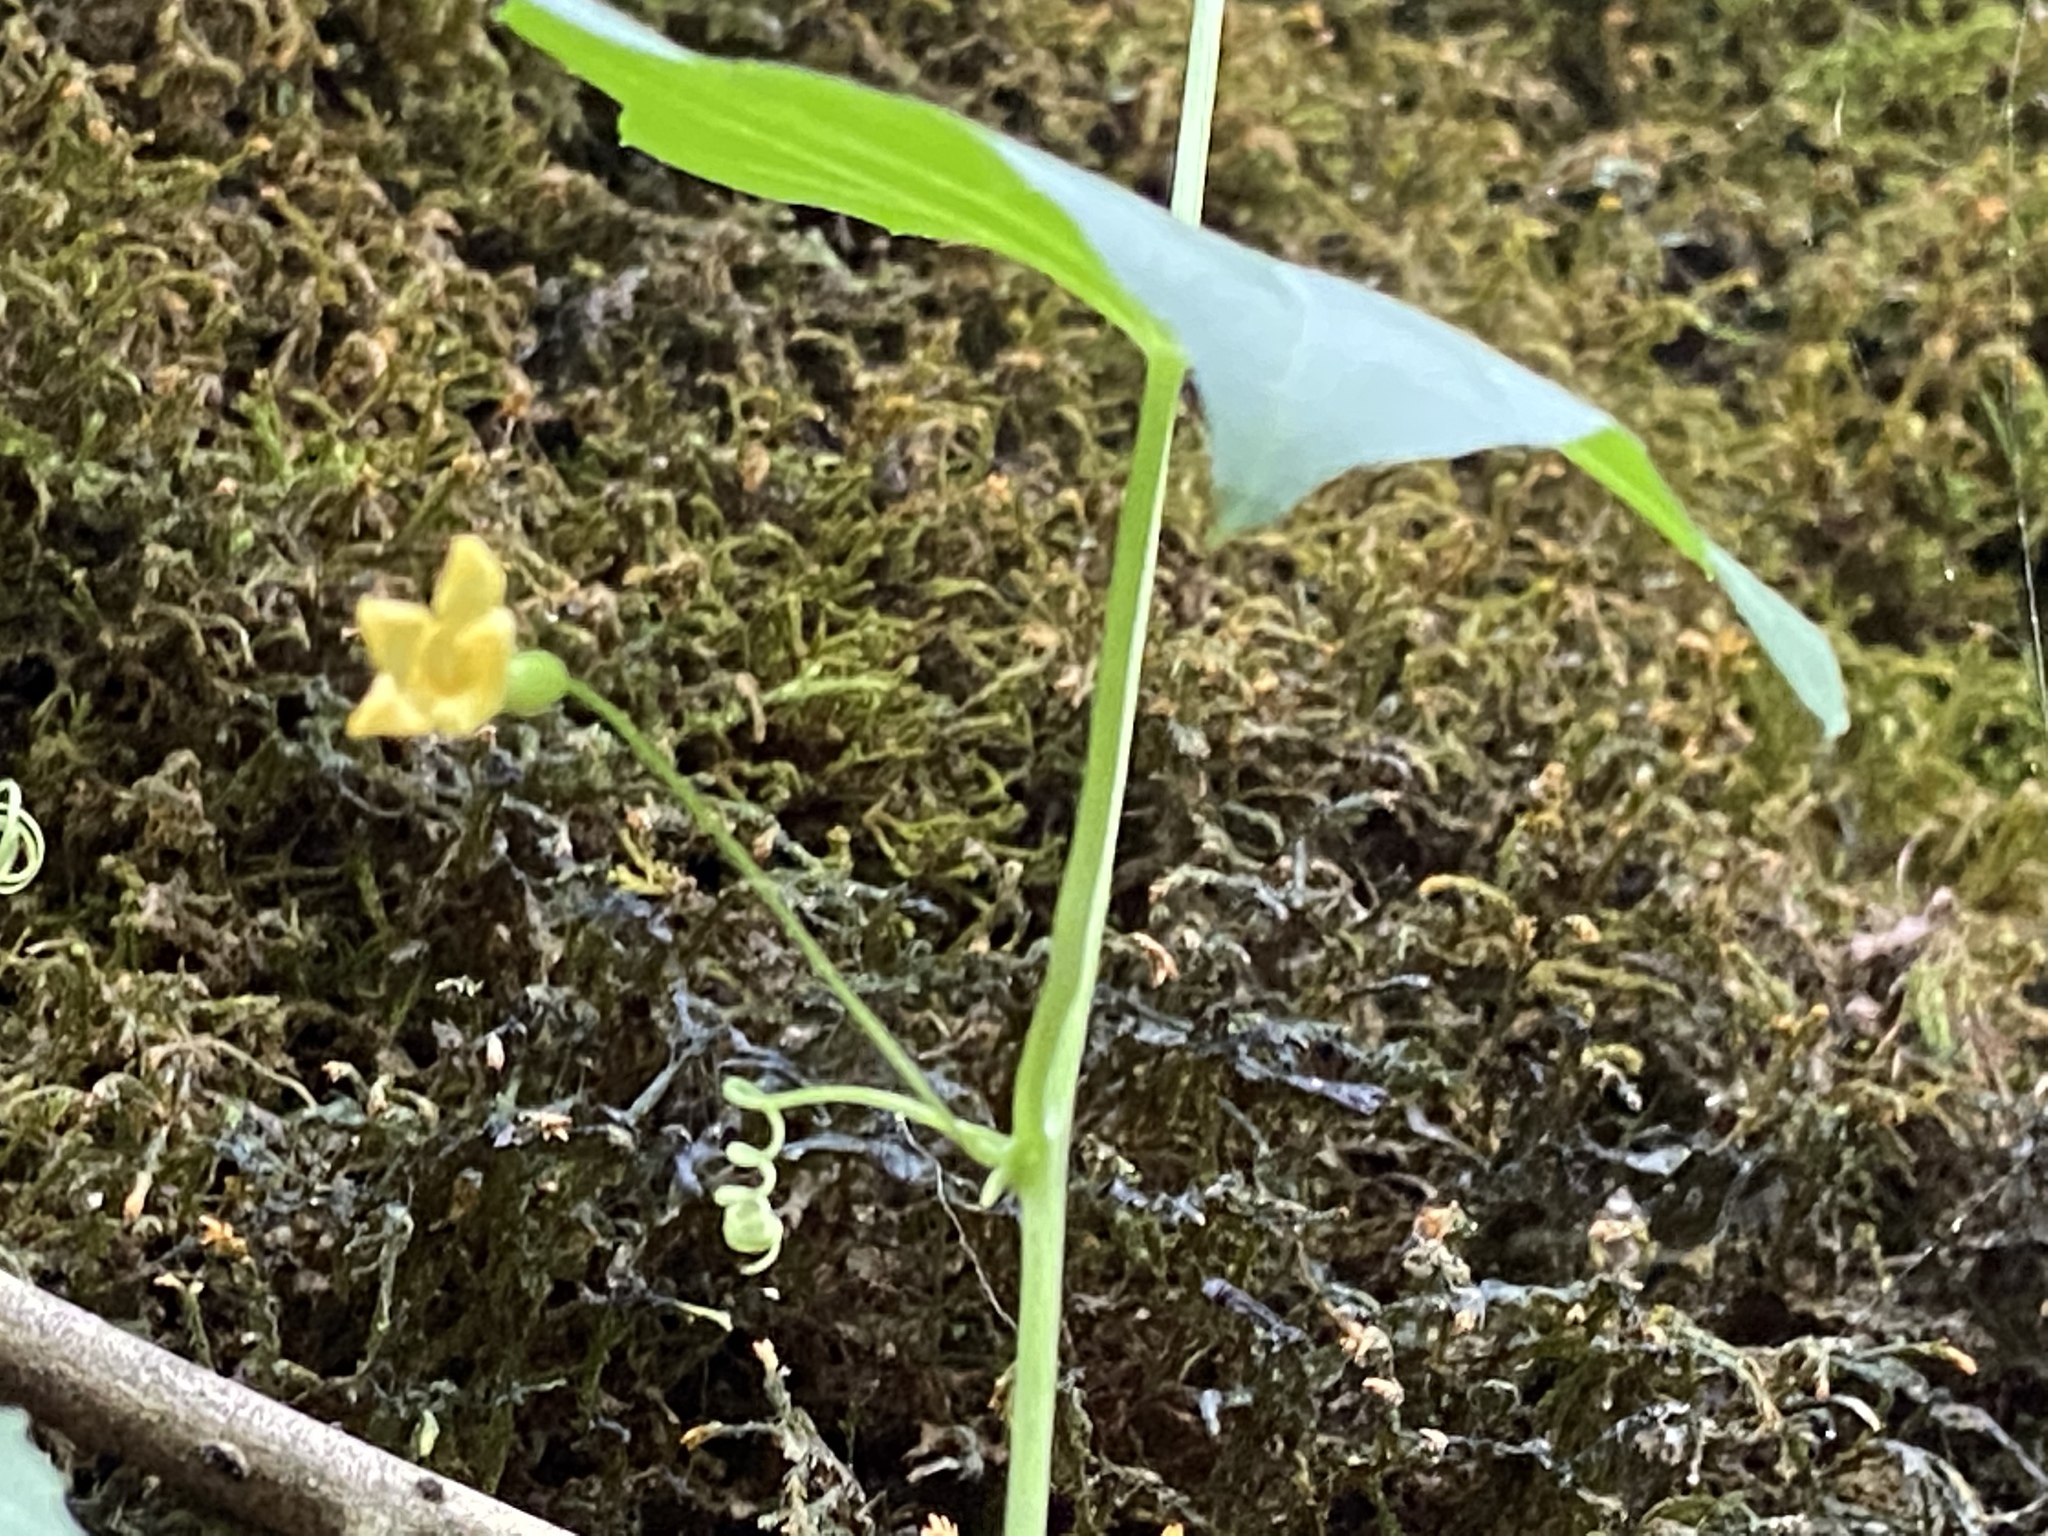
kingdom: Plantae
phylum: Tracheophyta
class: Magnoliopsida
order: Cucurbitales
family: Cucurbitaceae
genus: Melothria
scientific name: Melothria pendula
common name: Creeping-cucumber
